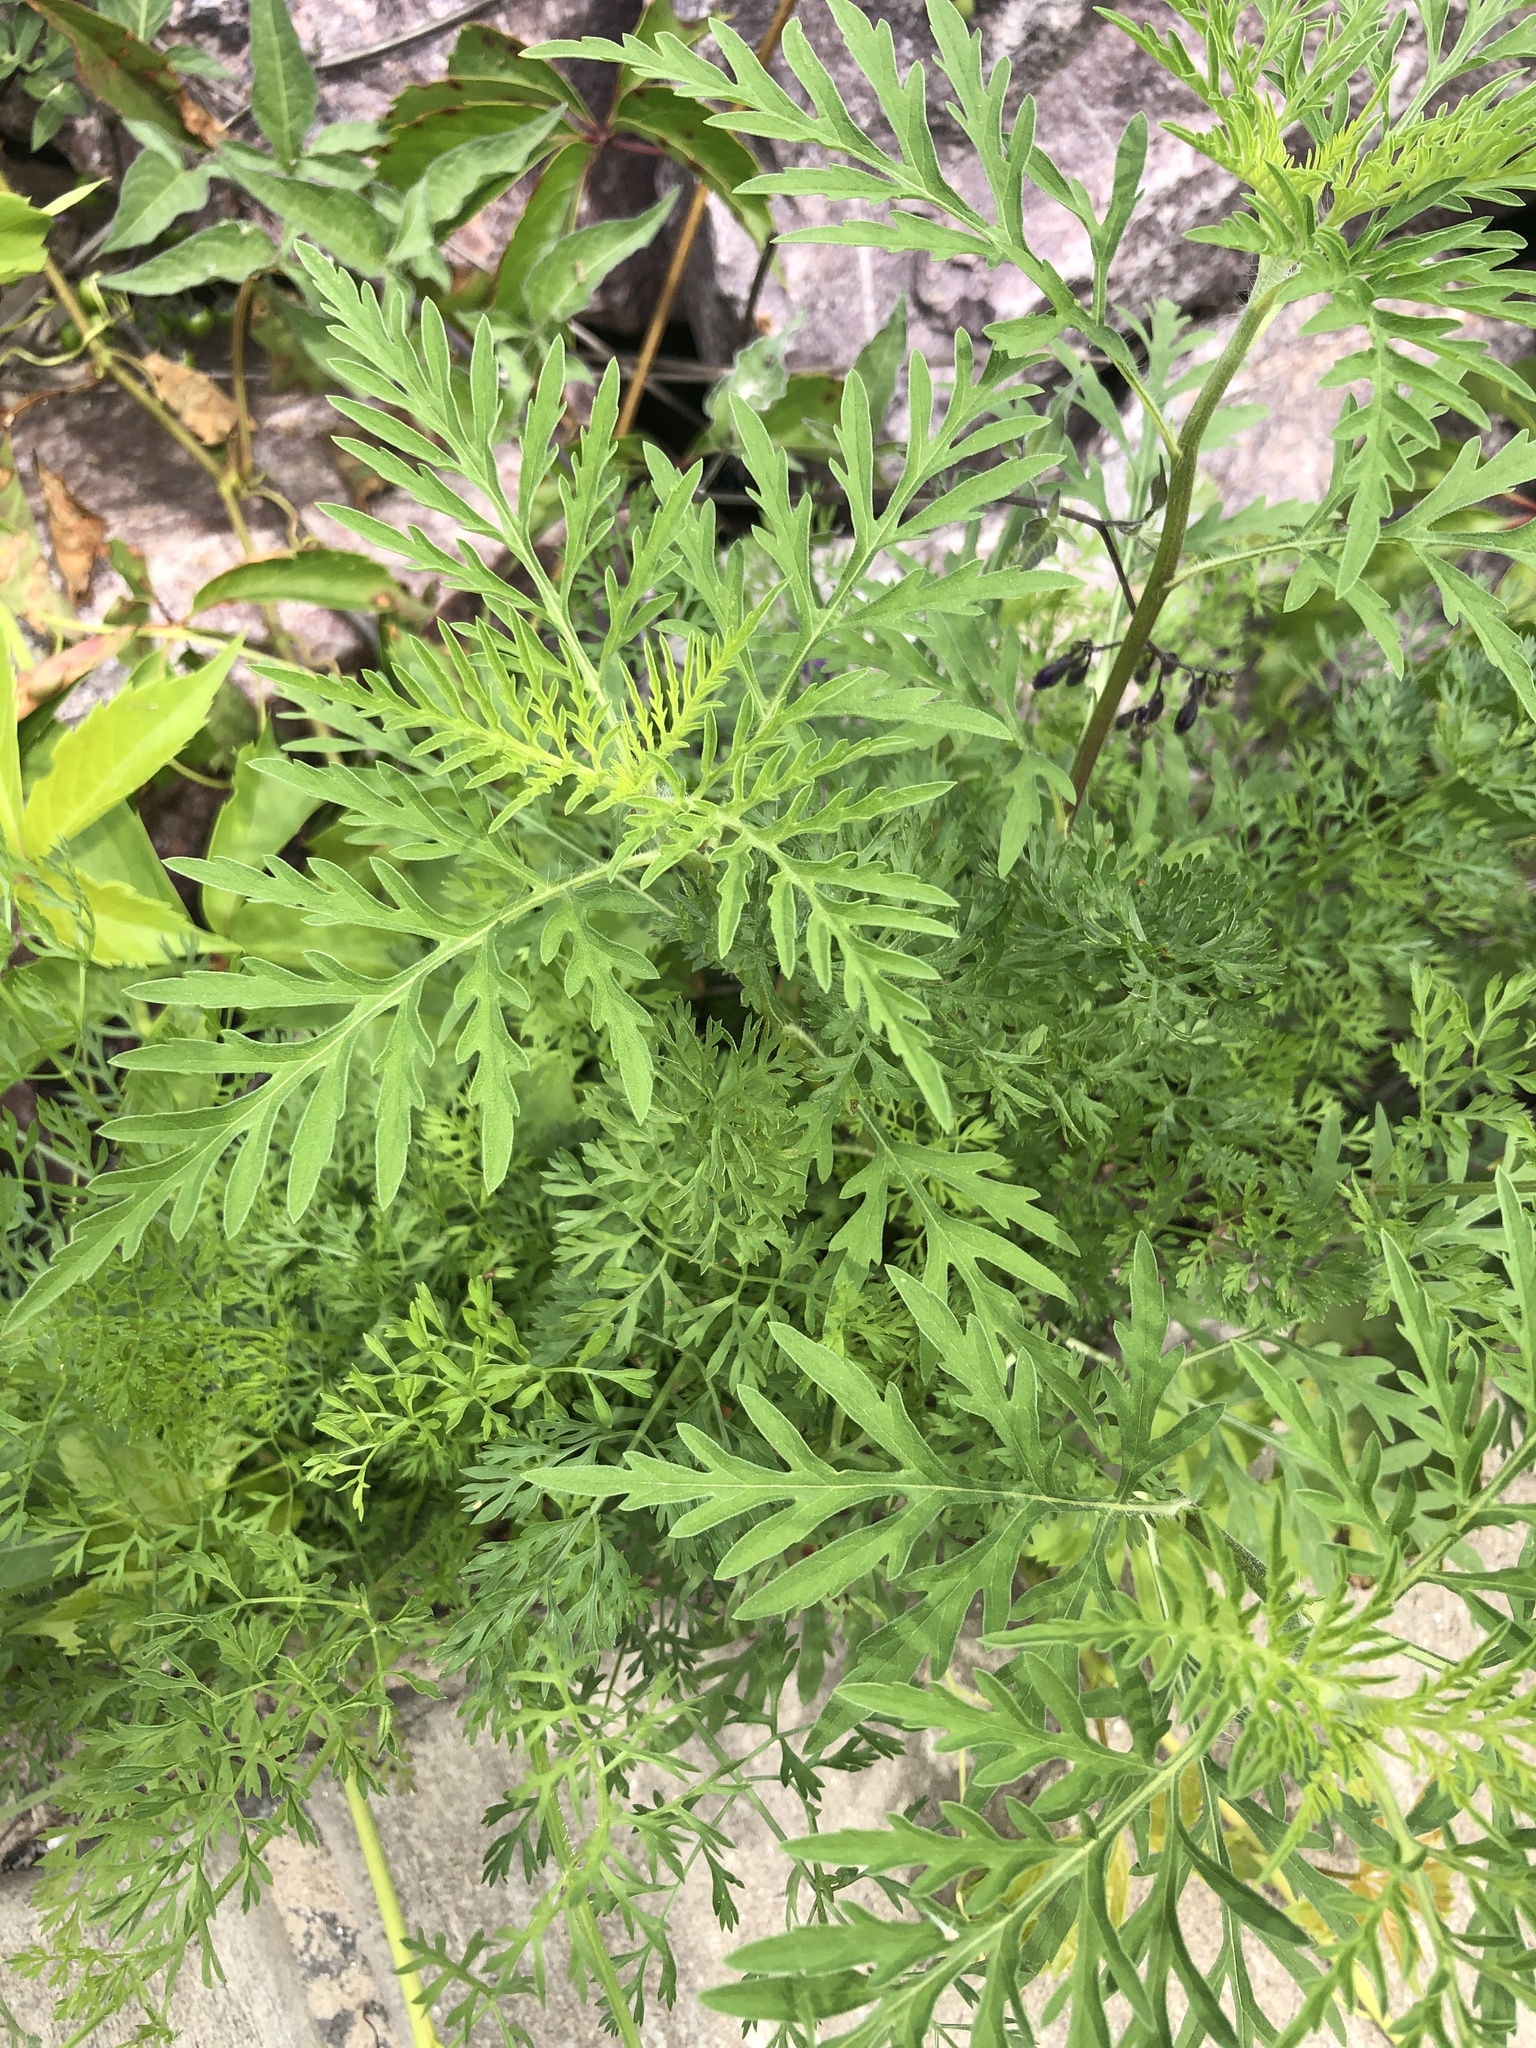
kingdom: Plantae
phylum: Tracheophyta
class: Magnoliopsida
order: Asterales
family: Asteraceae
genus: Ambrosia
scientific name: Ambrosia artemisiifolia
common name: Annual ragweed
